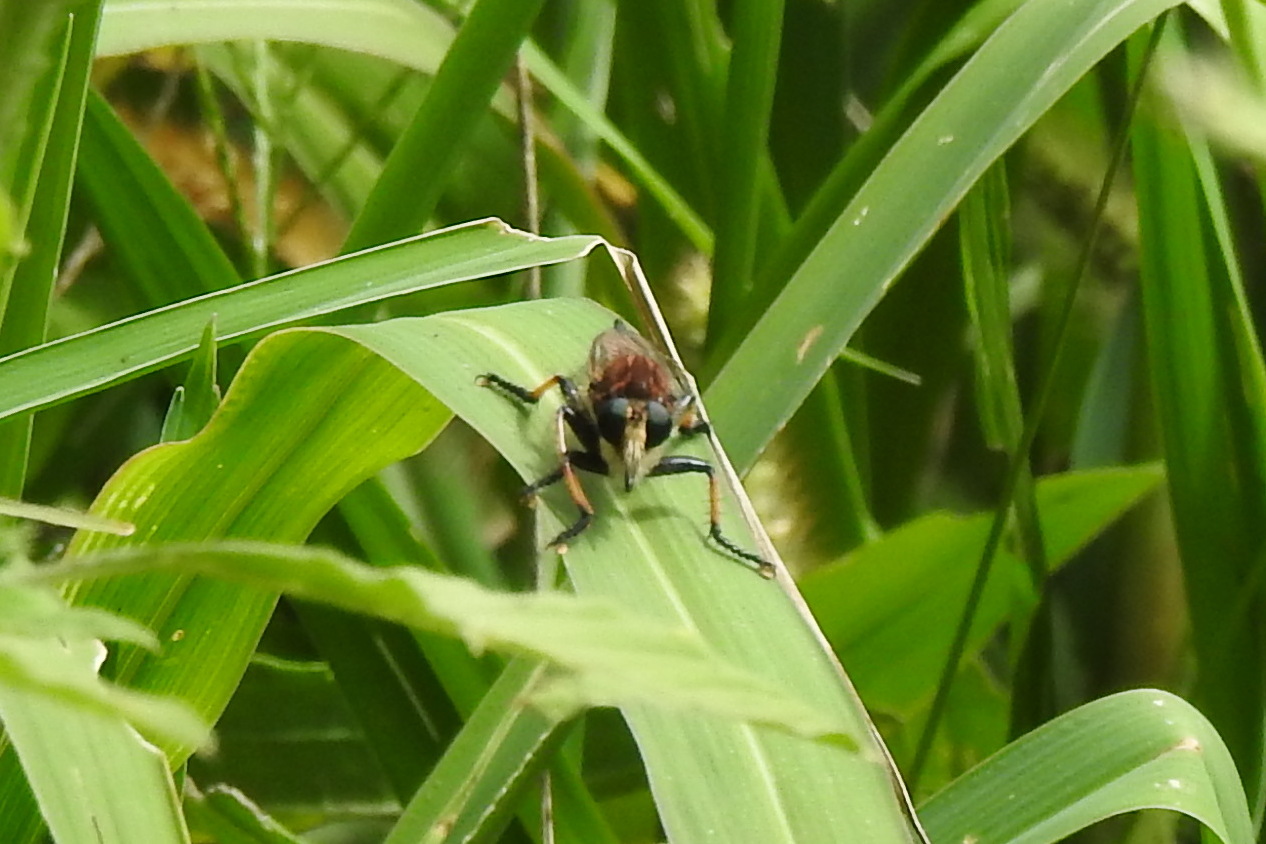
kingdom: Animalia
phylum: Arthropoda
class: Insecta
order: Diptera
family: Asilidae
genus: Promachus
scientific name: Promachus rufipes
